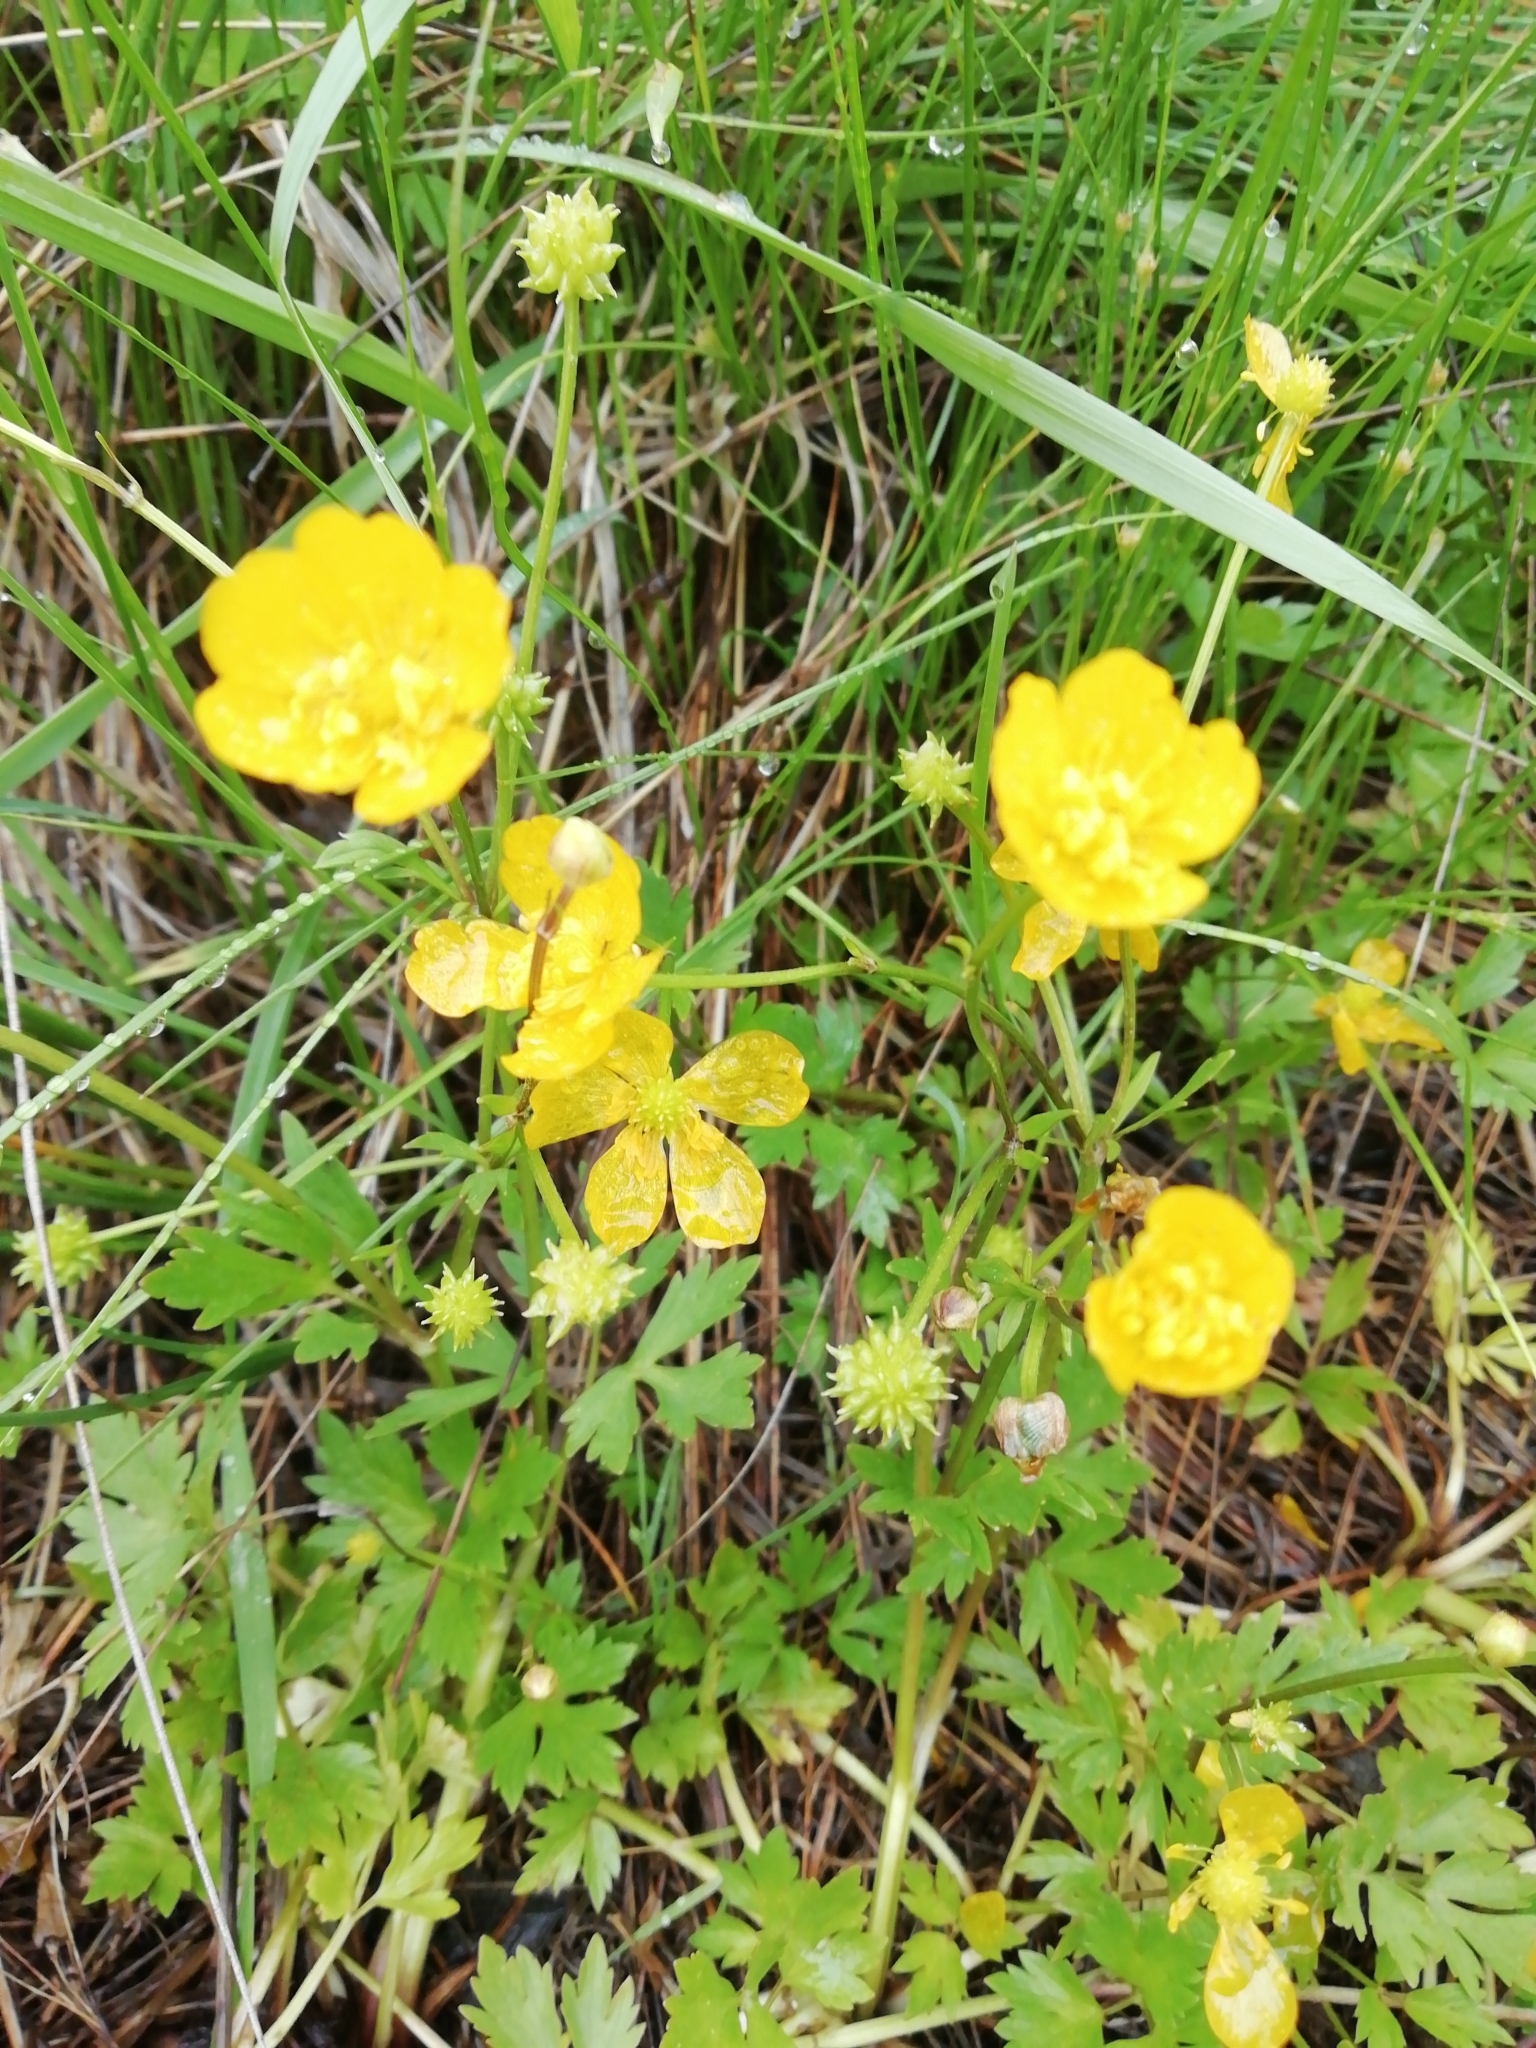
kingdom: Plantae
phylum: Tracheophyta
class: Magnoliopsida
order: Ranunculales
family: Ranunculaceae
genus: Ranunculus
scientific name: Ranunculus repens
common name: Creeping buttercup
